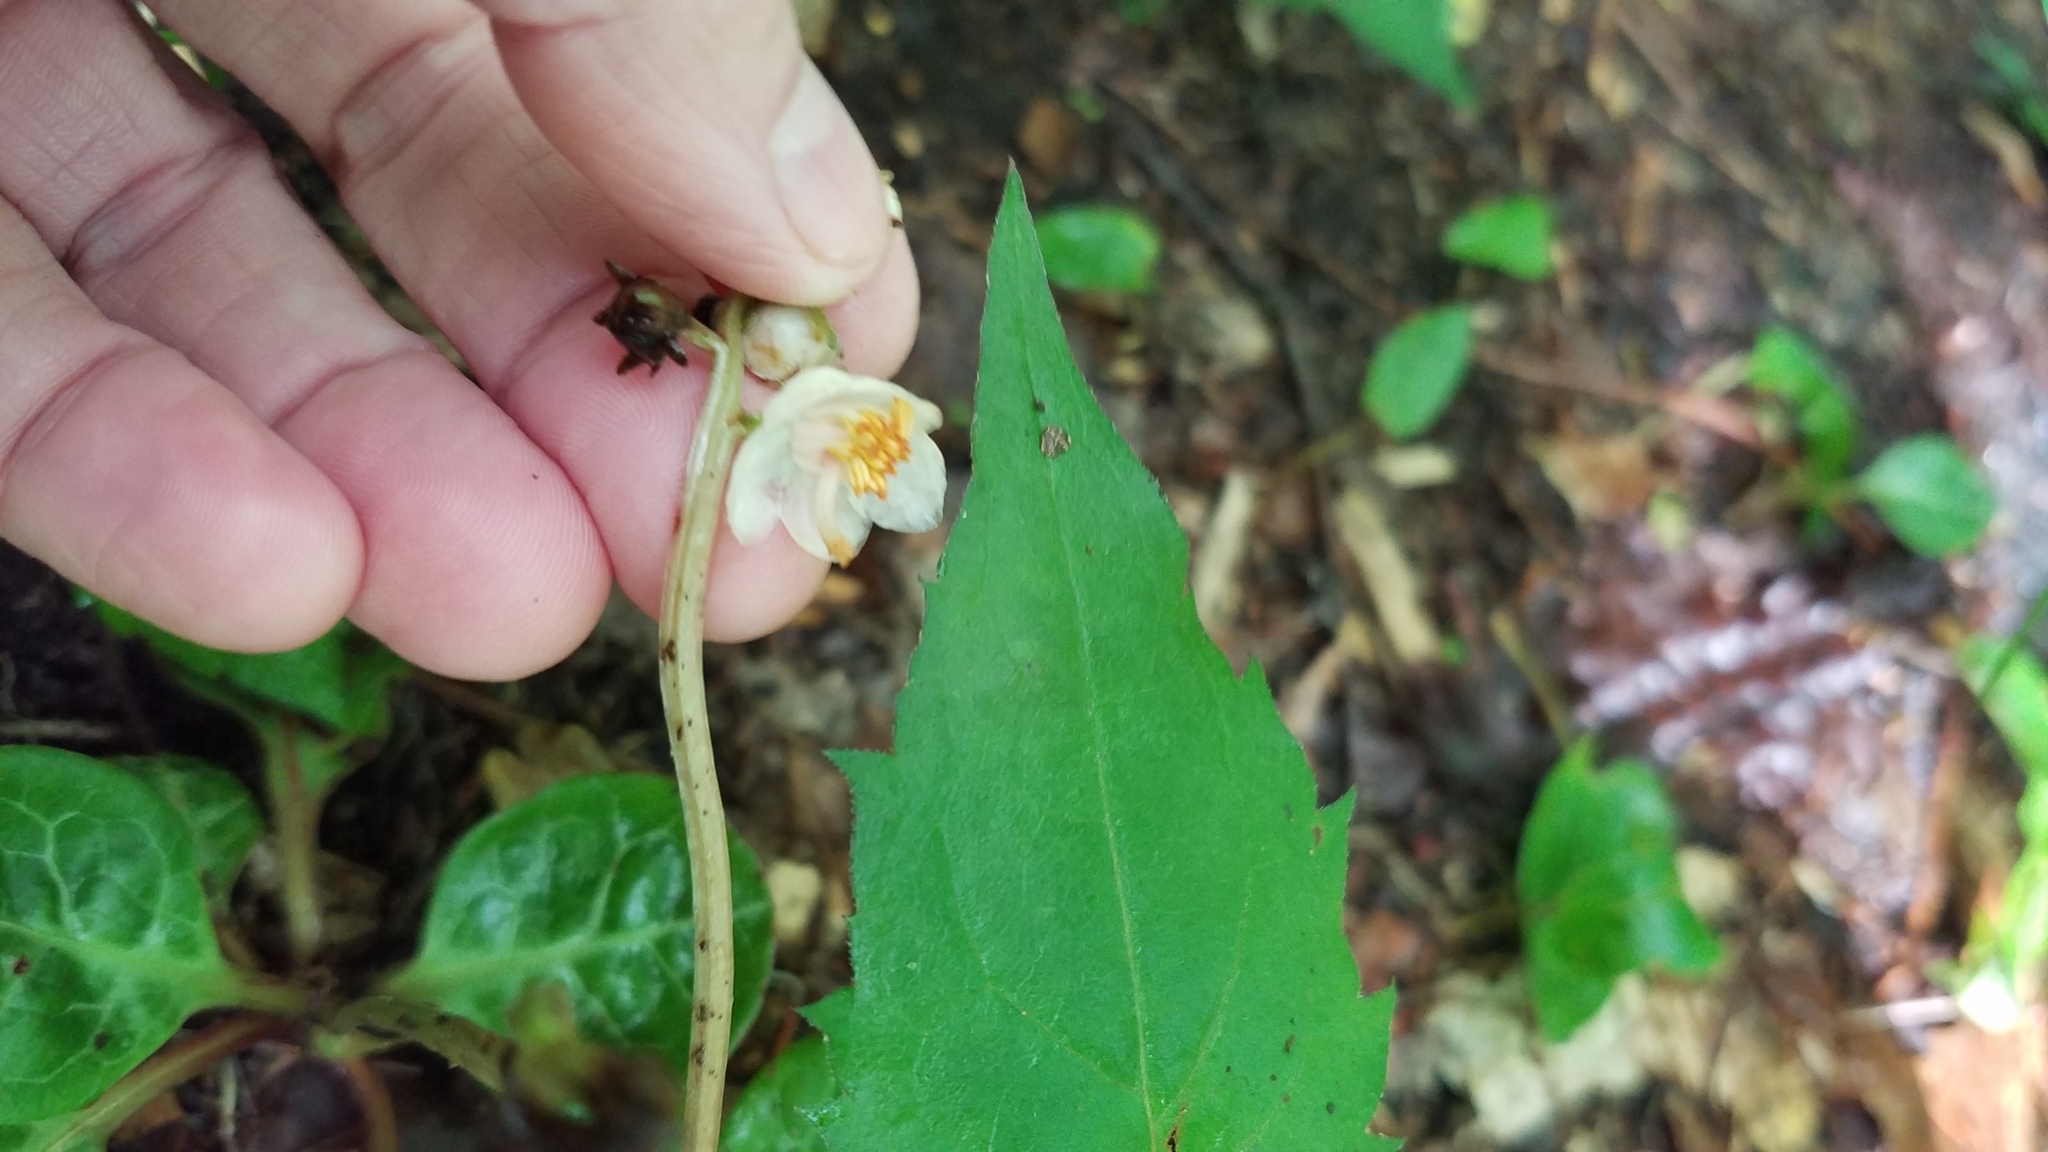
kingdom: Plantae
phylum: Tracheophyta
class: Magnoliopsida
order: Ericales
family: Ericaceae
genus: Pyrola
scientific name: Pyrola americana
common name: American wintergreen
